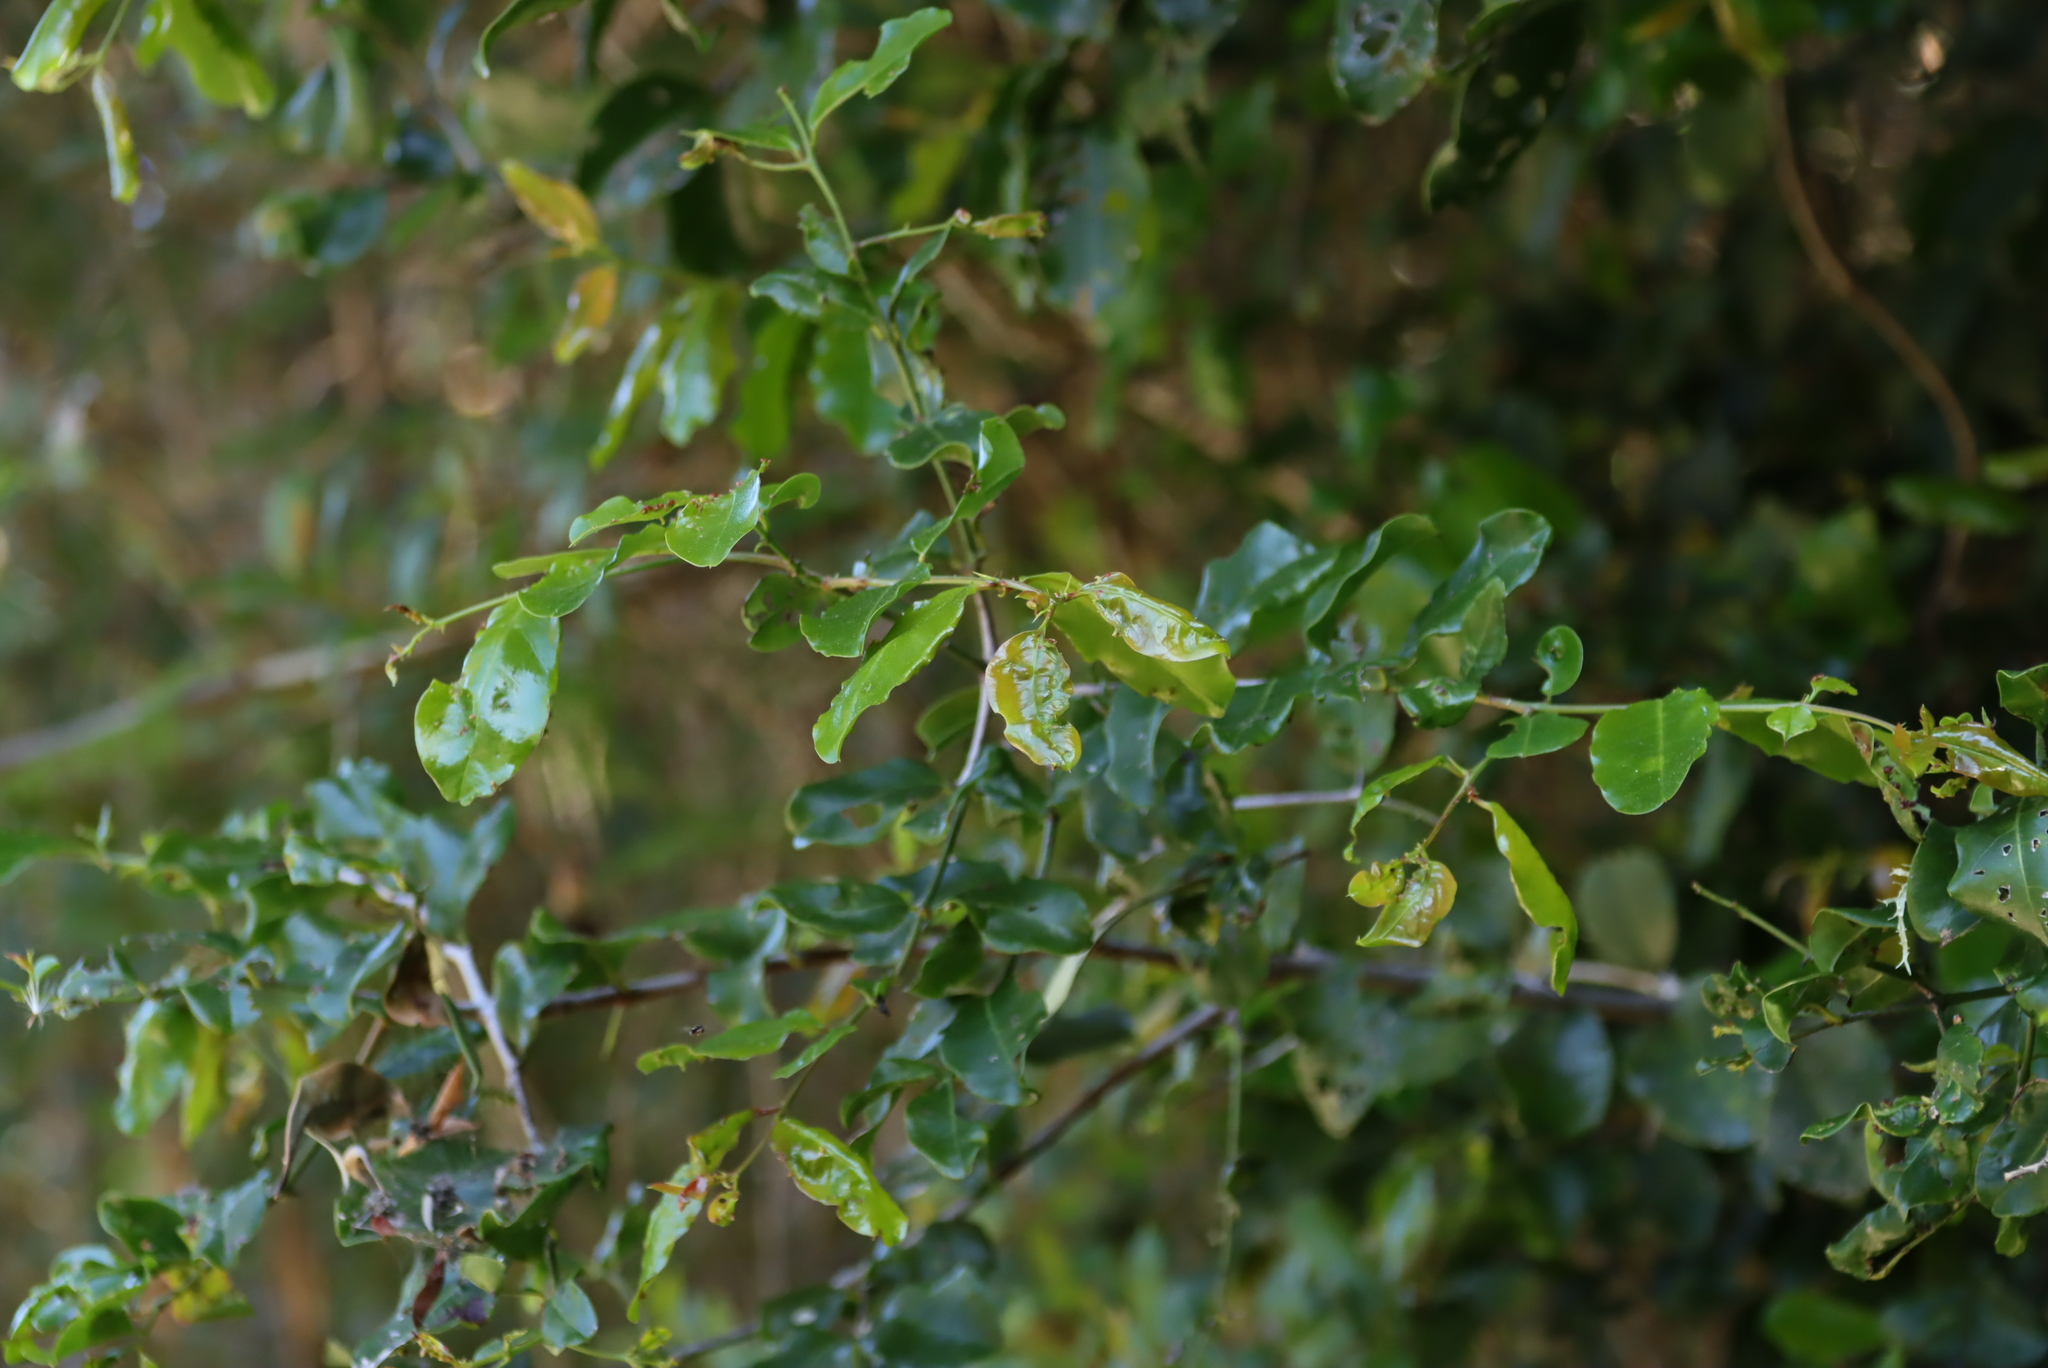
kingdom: Plantae
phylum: Tracheophyta
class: Magnoliopsida
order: Rosales
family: Rhamnaceae
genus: Scutia
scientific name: Scutia myrtina
